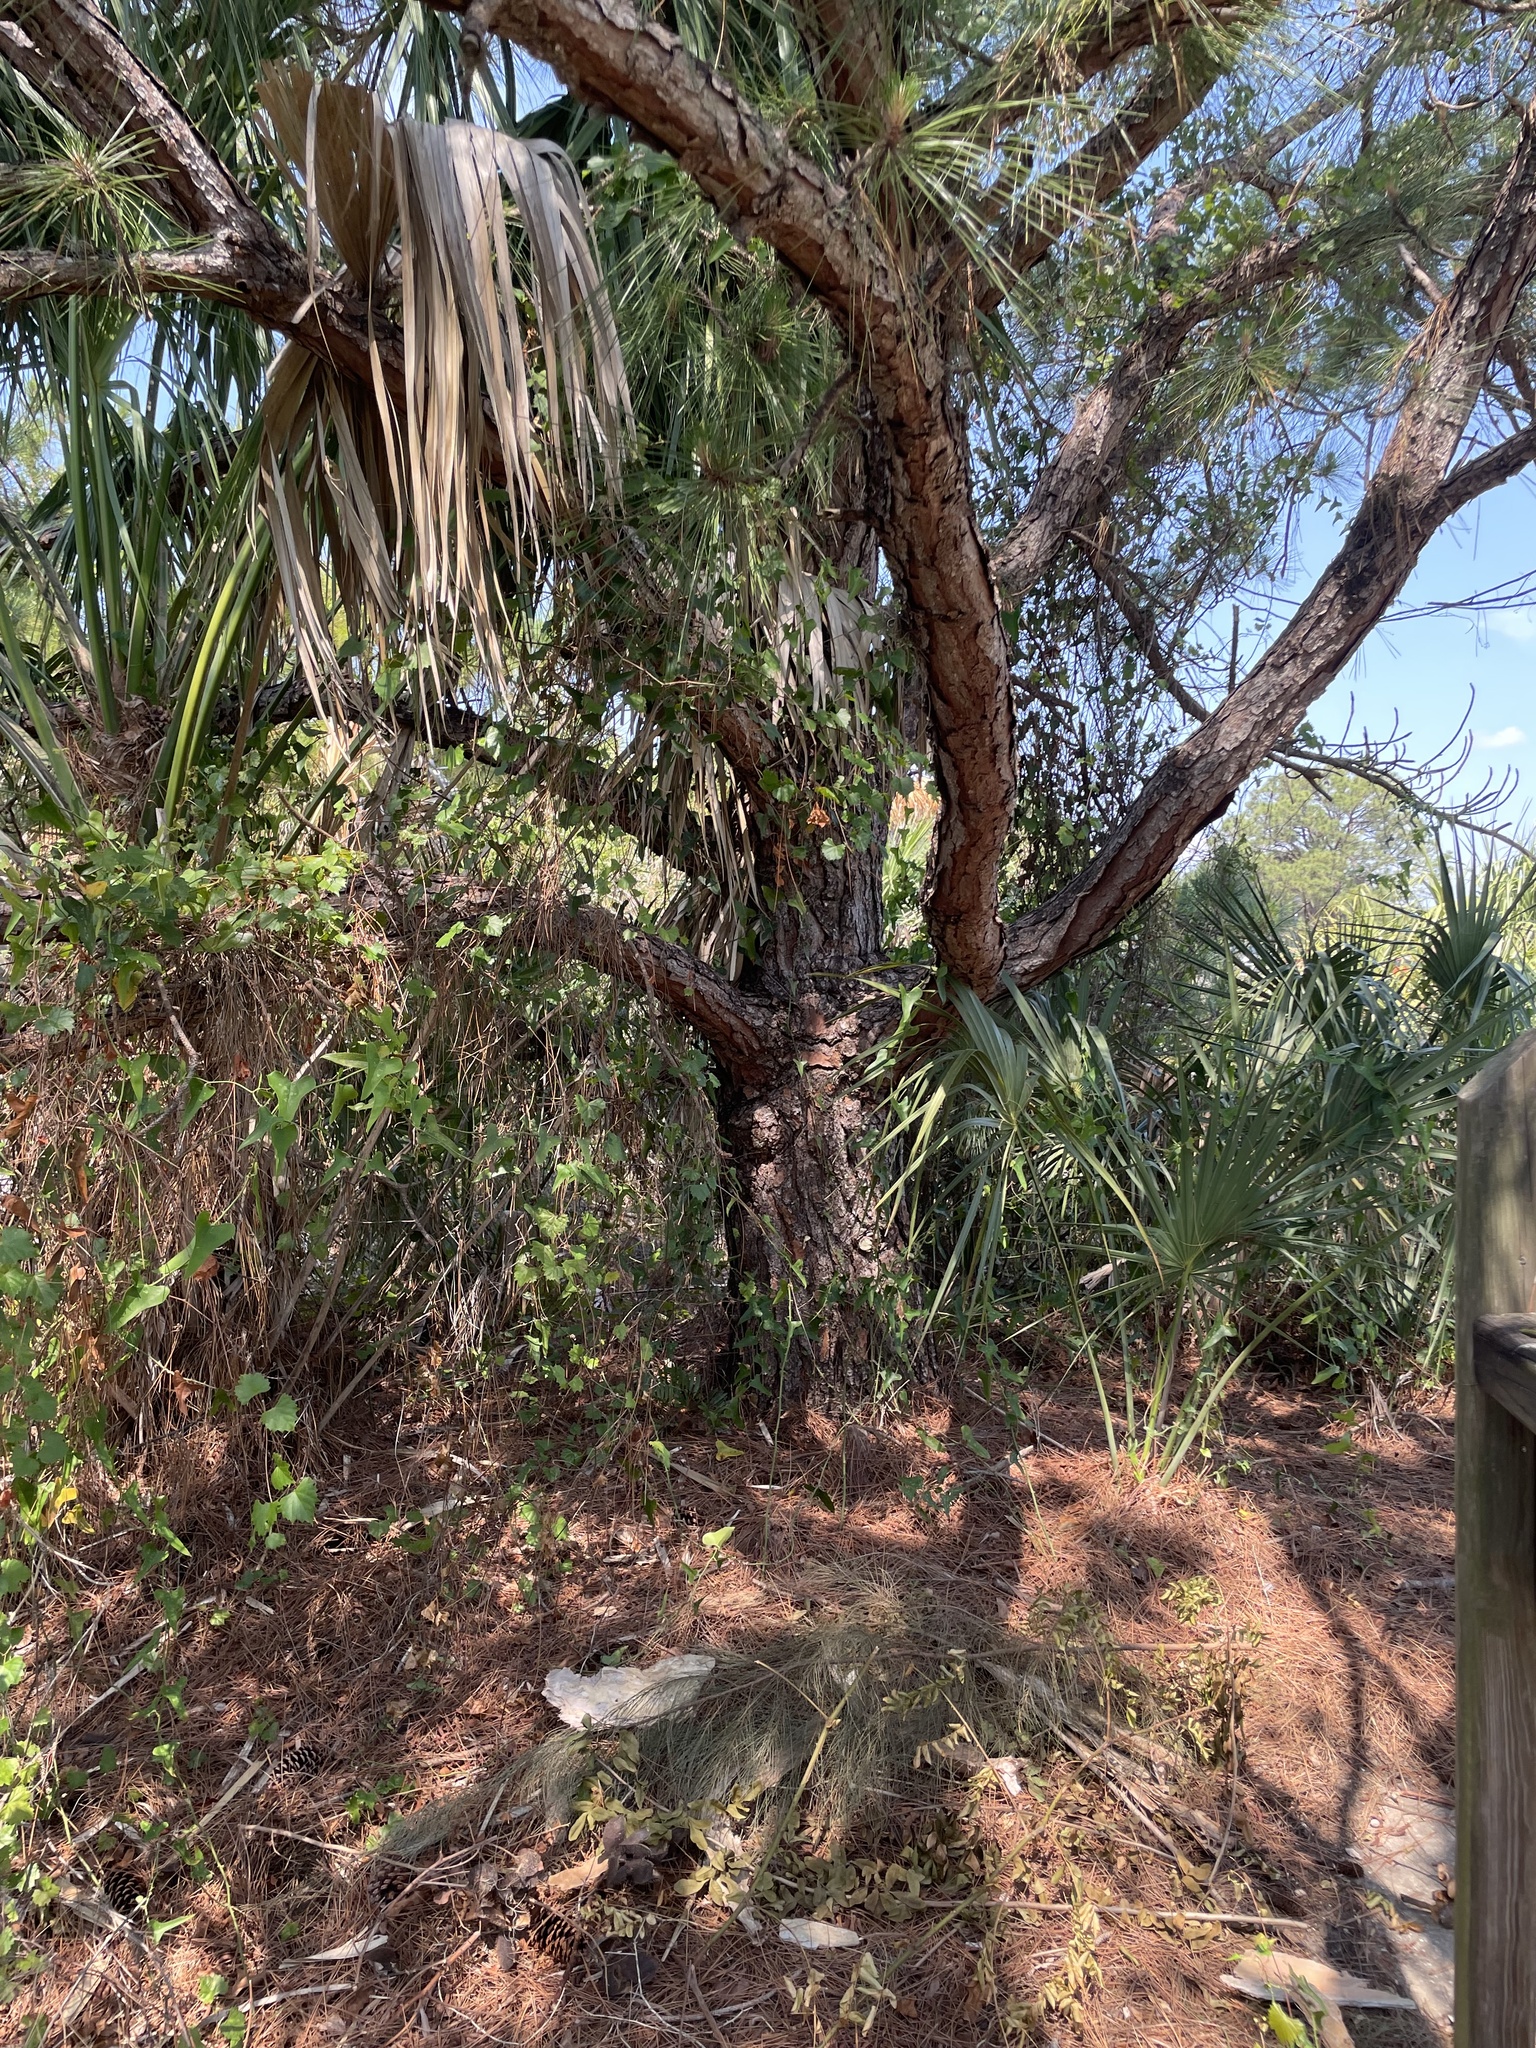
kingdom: Plantae
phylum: Tracheophyta
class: Pinopsida
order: Pinales
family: Pinaceae
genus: Pinus
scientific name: Pinus elliottii
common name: Slash pine
